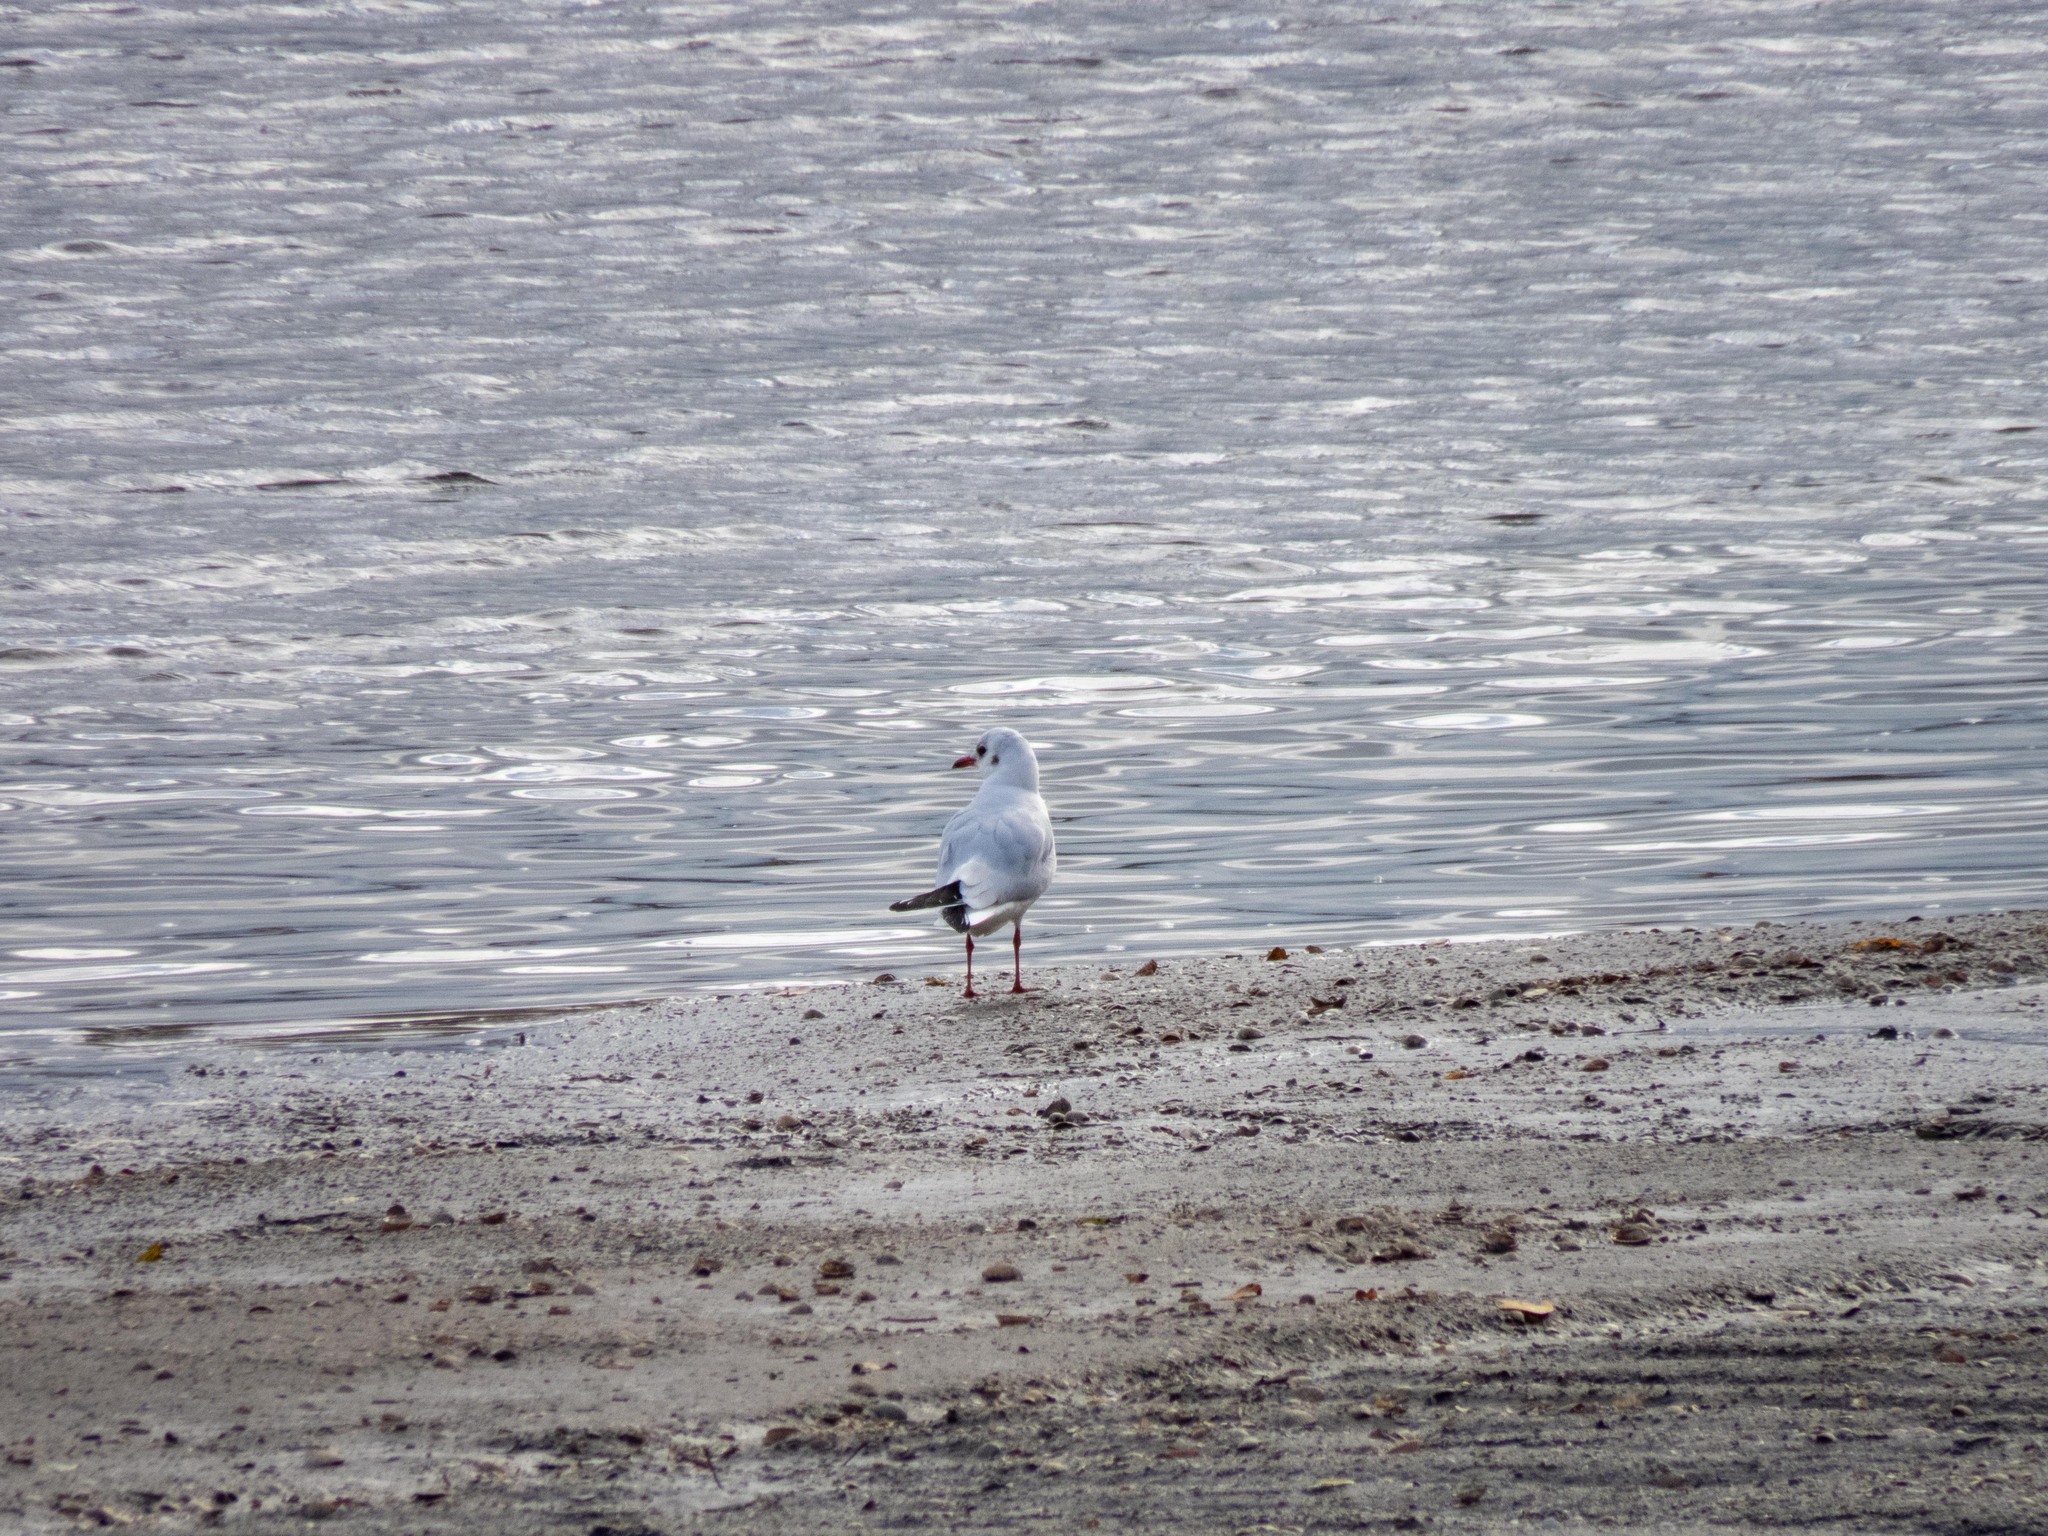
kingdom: Animalia
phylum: Chordata
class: Aves
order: Charadriiformes
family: Laridae
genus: Chroicocephalus
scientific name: Chroicocephalus ridibundus
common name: Black-headed gull
